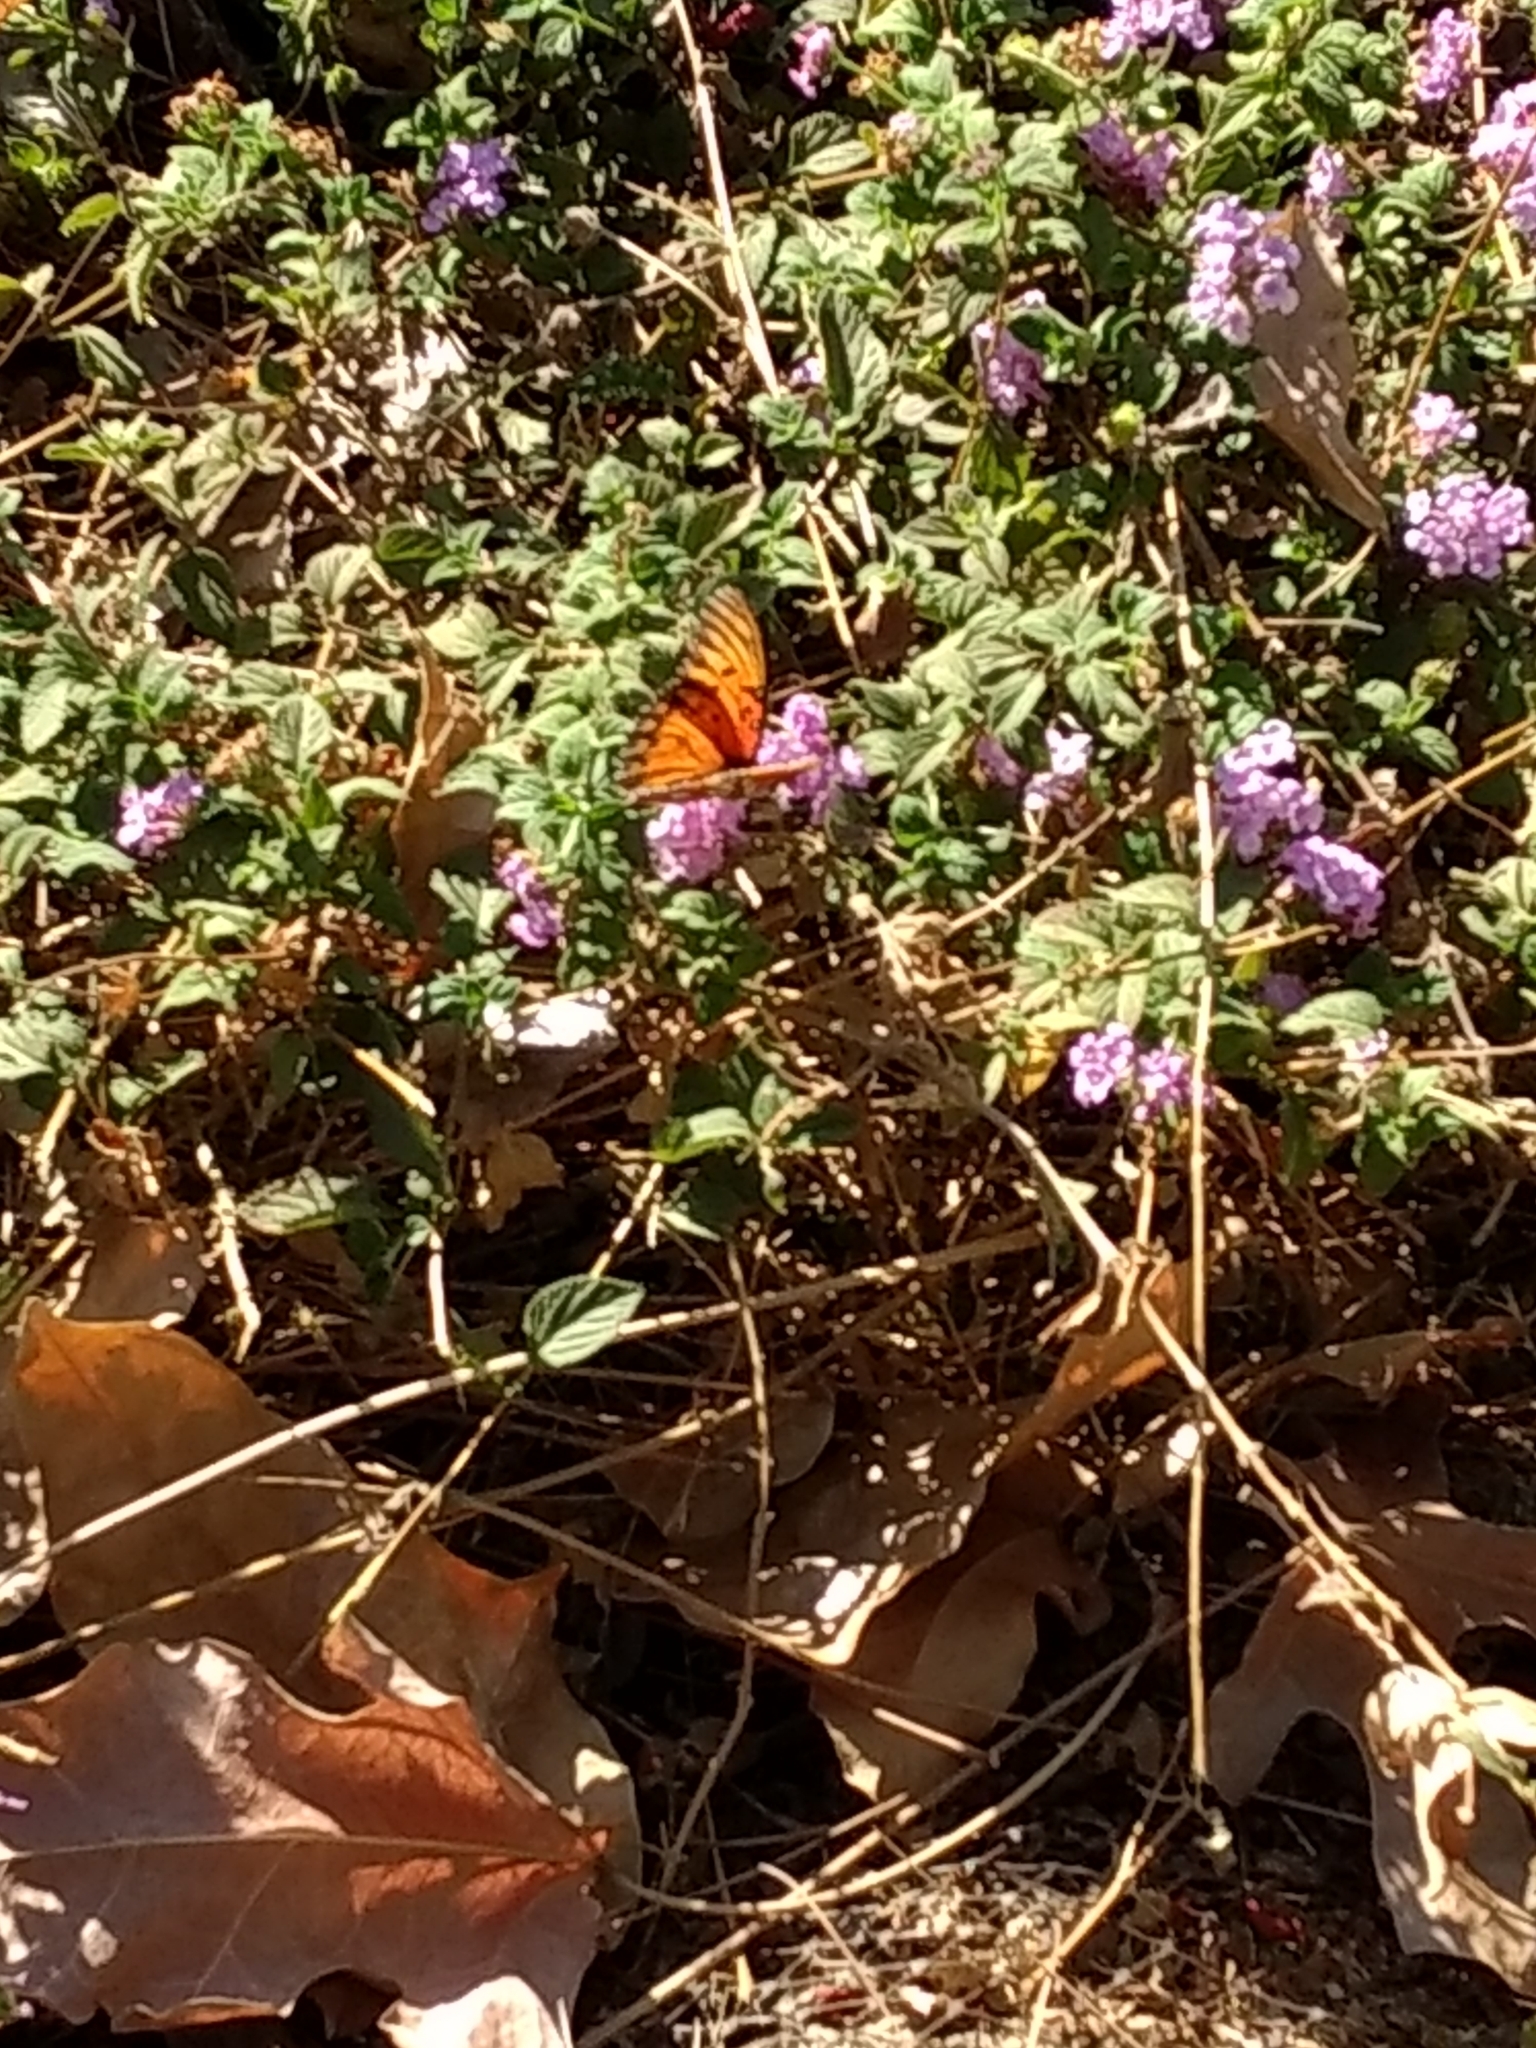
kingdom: Animalia
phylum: Arthropoda
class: Insecta
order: Lepidoptera
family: Nymphalidae
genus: Dione
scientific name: Dione vanillae
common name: Gulf fritillary
